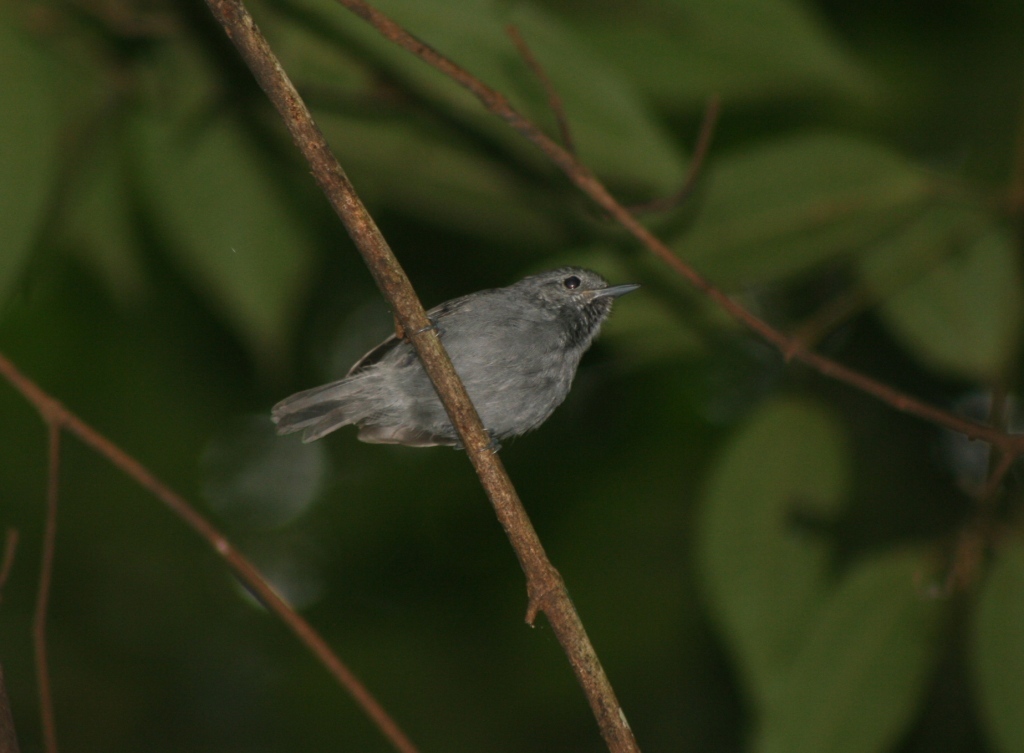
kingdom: Animalia
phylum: Chordata
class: Aves
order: Passeriformes
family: Thamnophilidae
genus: Myrmotherula
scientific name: Myrmotherula unicolor
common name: Unicolored antwren
